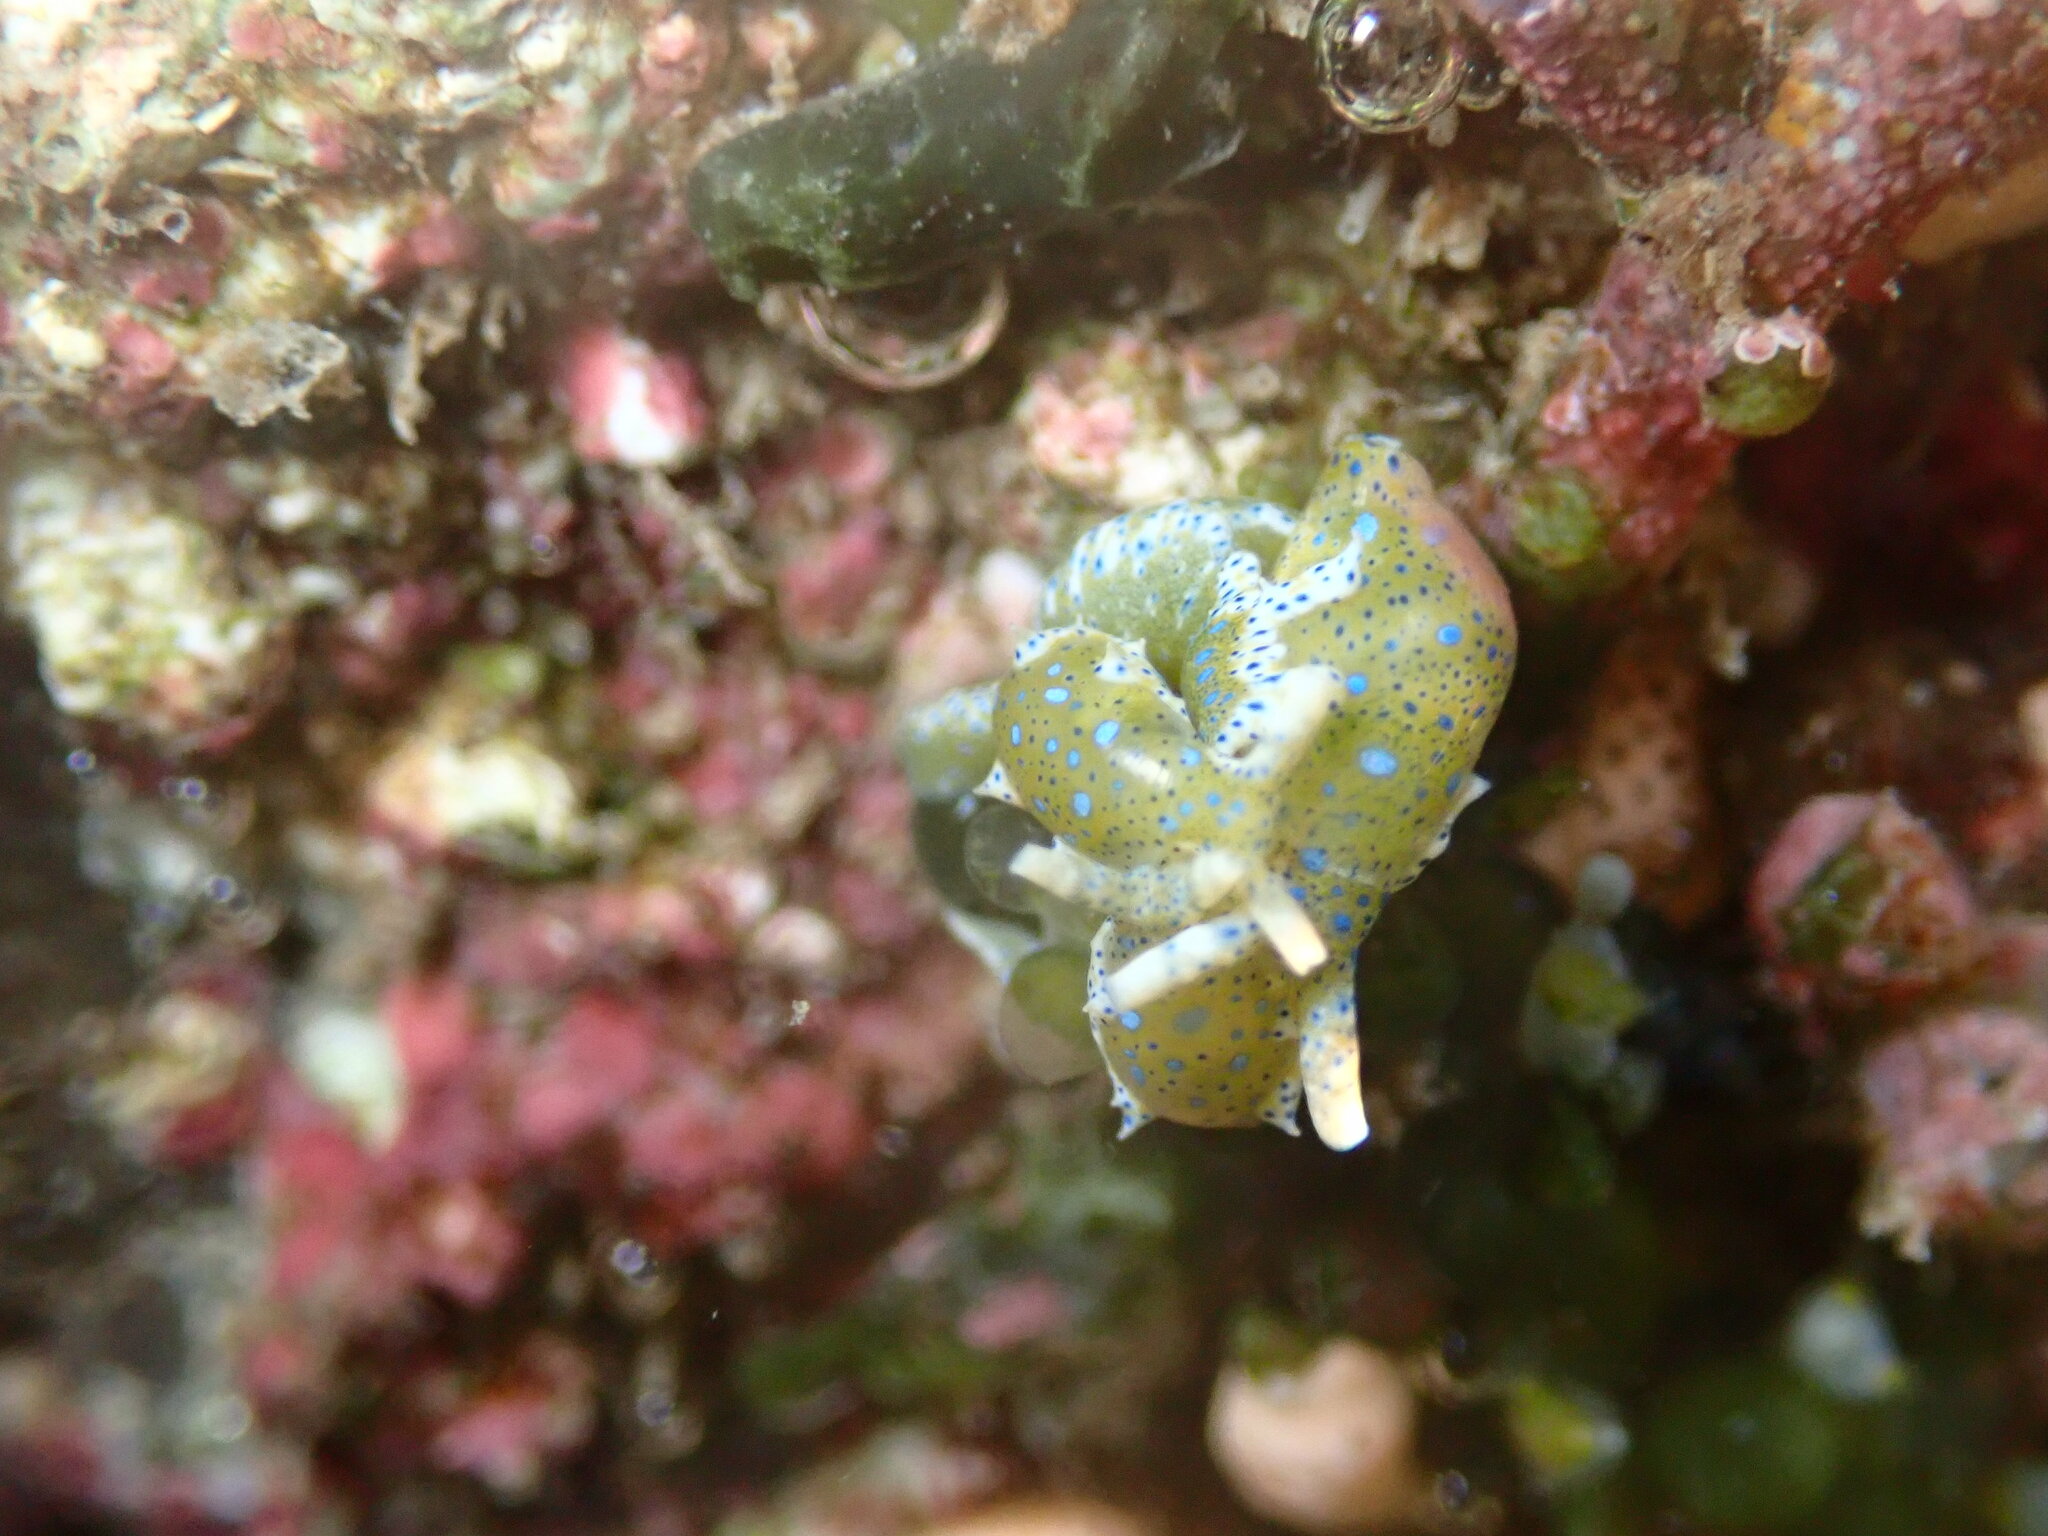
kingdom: Animalia
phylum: Mollusca
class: Gastropoda
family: Oxynoidae
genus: Oxynoe
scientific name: Oxynoe viridis
